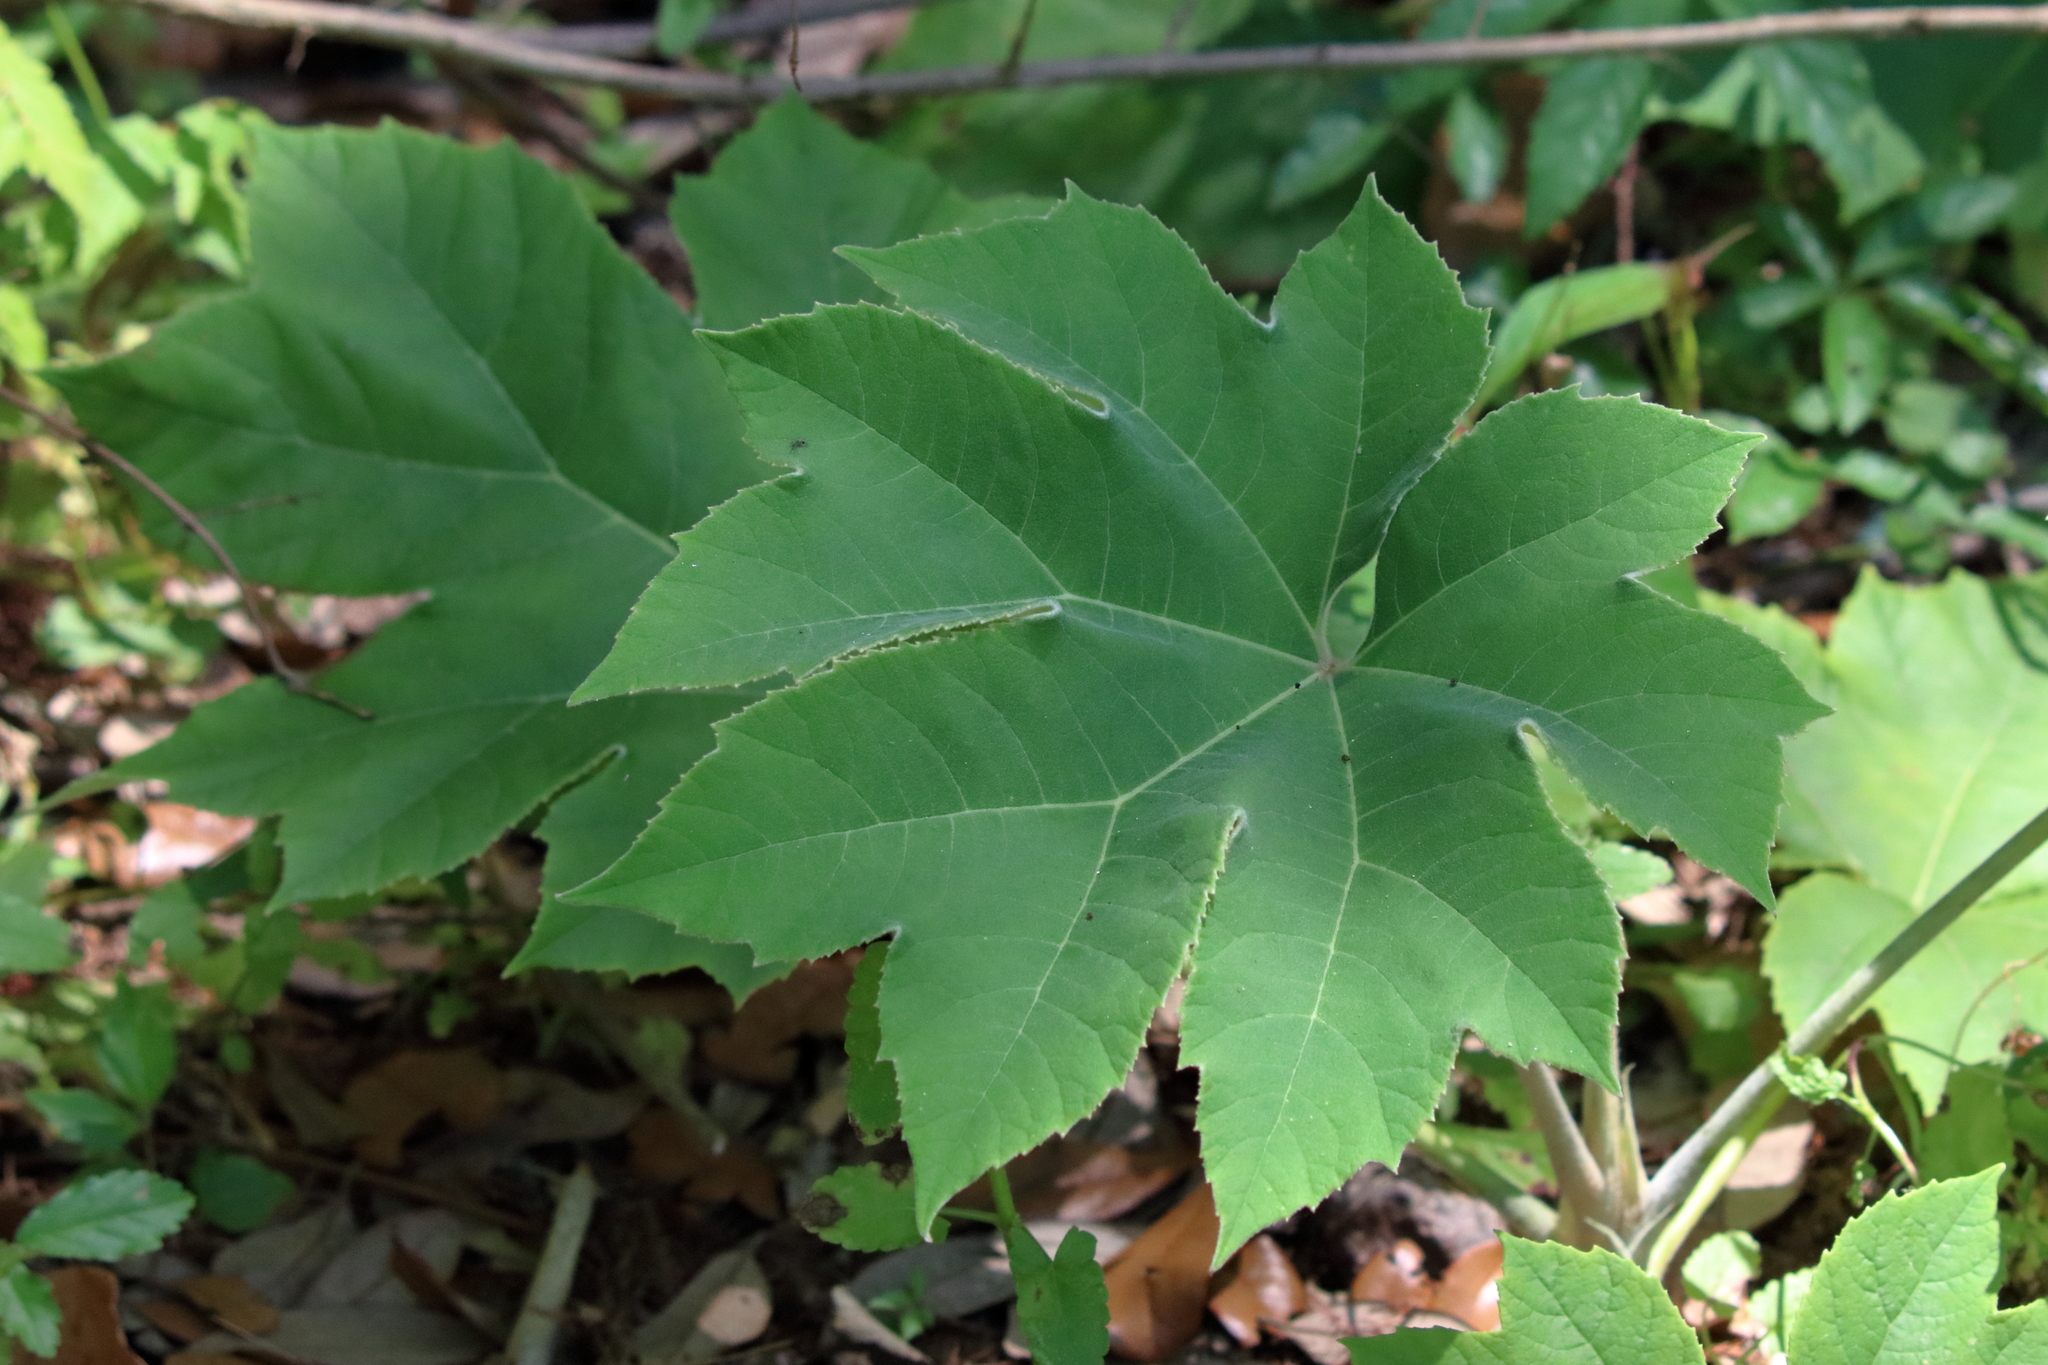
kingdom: Plantae
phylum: Tracheophyta
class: Magnoliopsida
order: Apiales
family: Araliaceae
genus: Tetrapanax
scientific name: Tetrapanax papyrifer
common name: Rice-paper plant
